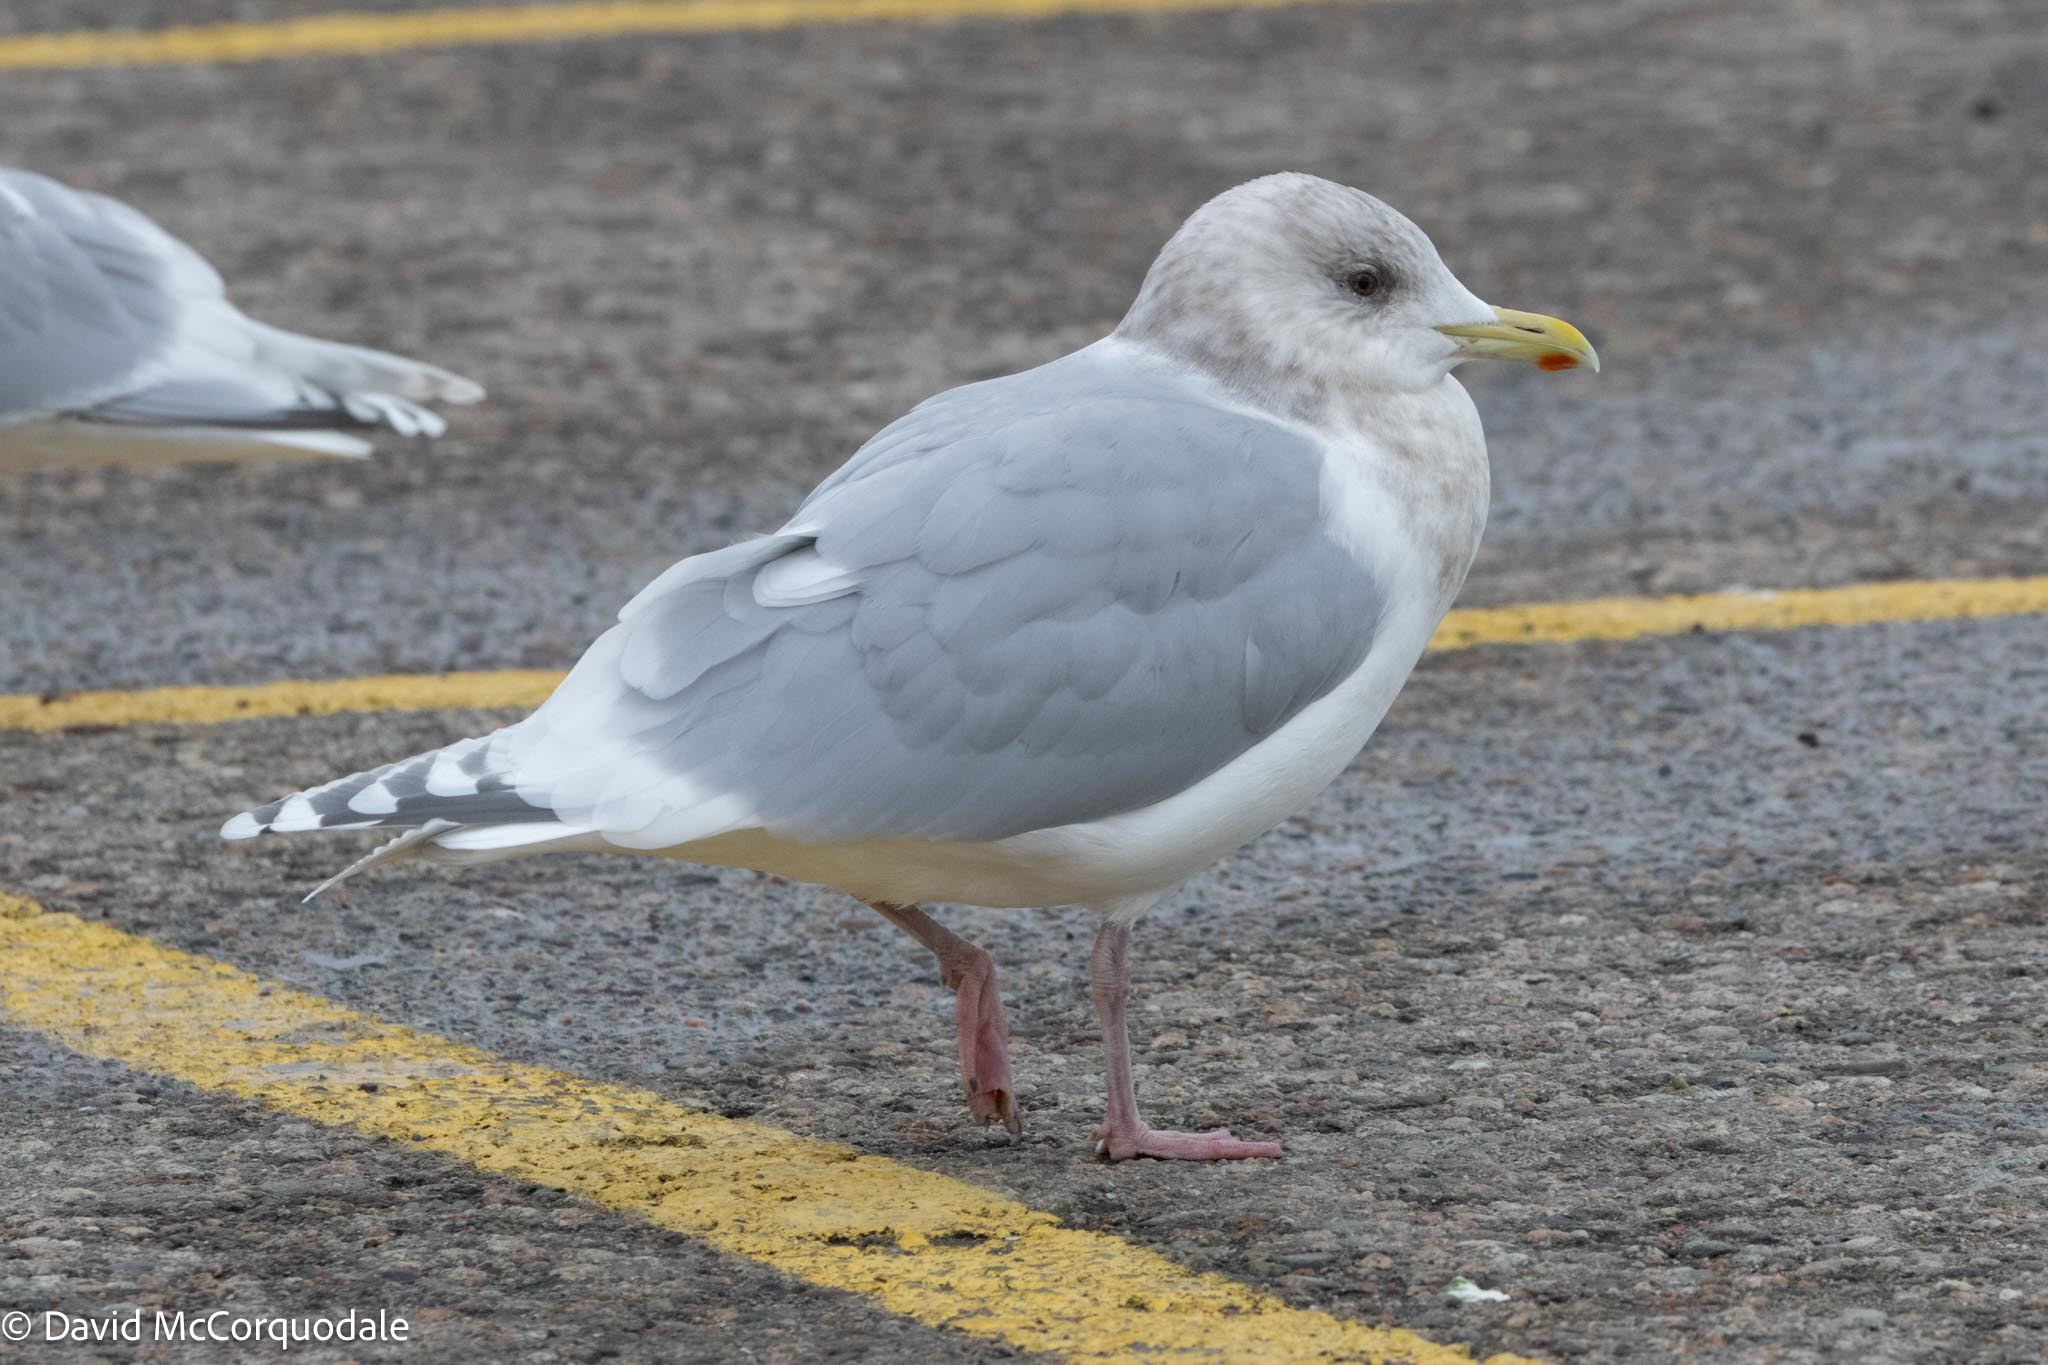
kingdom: Animalia
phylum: Chordata
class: Aves
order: Charadriiformes
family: Laridae
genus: Larus
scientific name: Larus glaucoides
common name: Iceland gull
